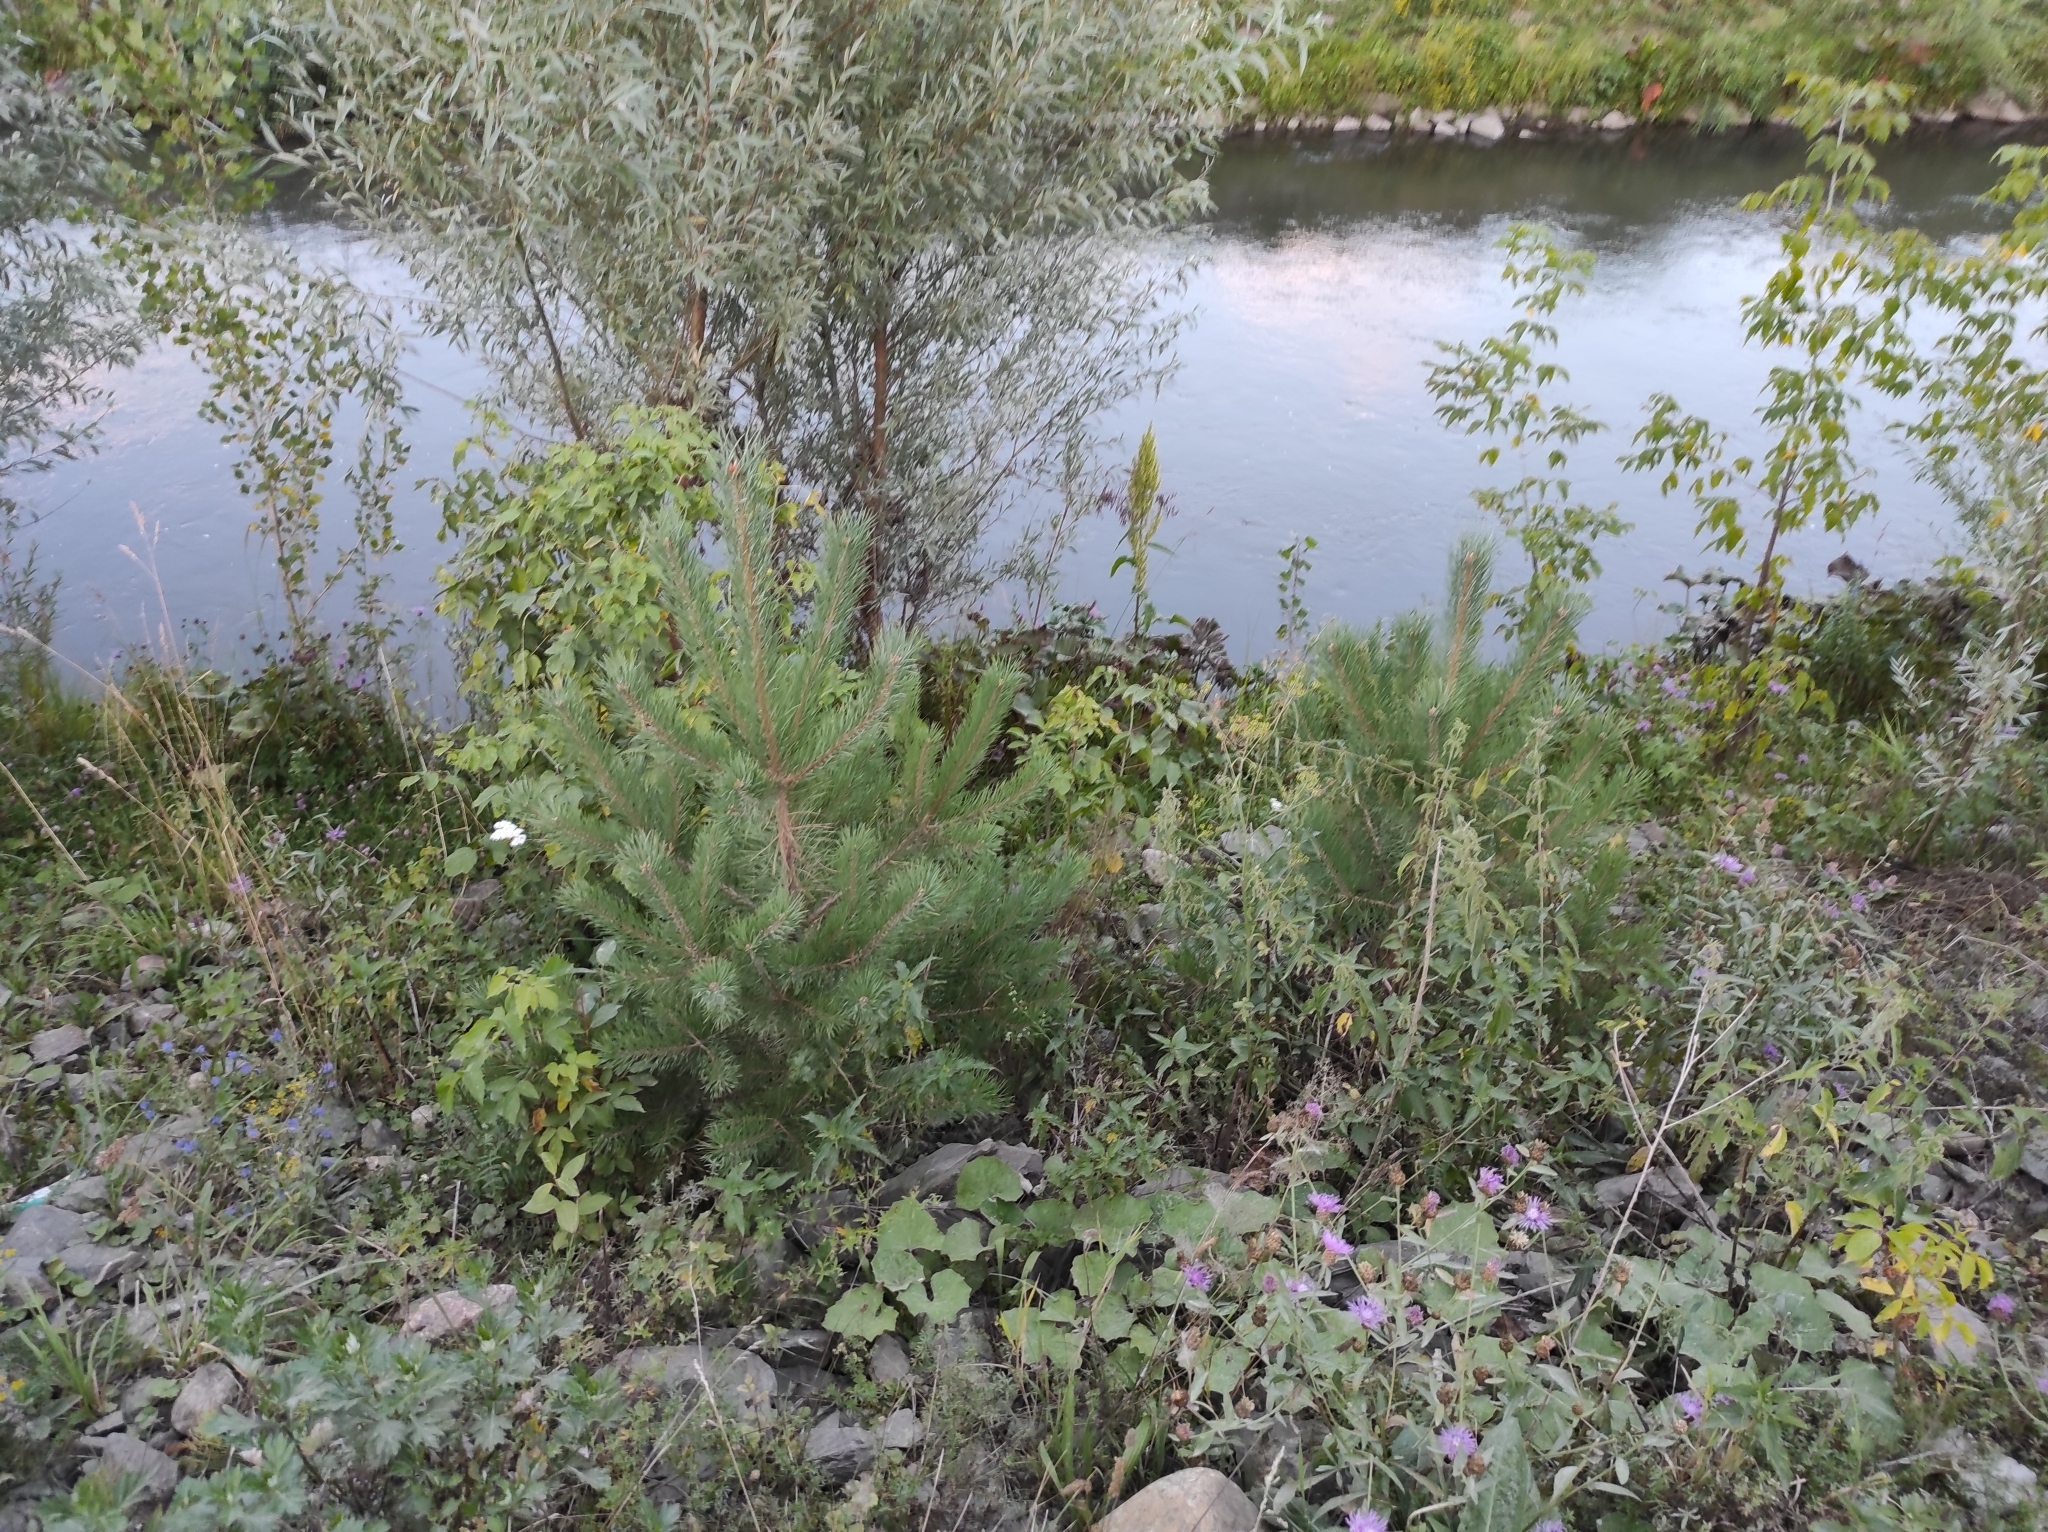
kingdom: Plantae
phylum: Tracheophyta
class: Pinopsida
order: Pinales
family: Pinaceae
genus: Pinus
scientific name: Pinus sylvestris
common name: Scots pine
